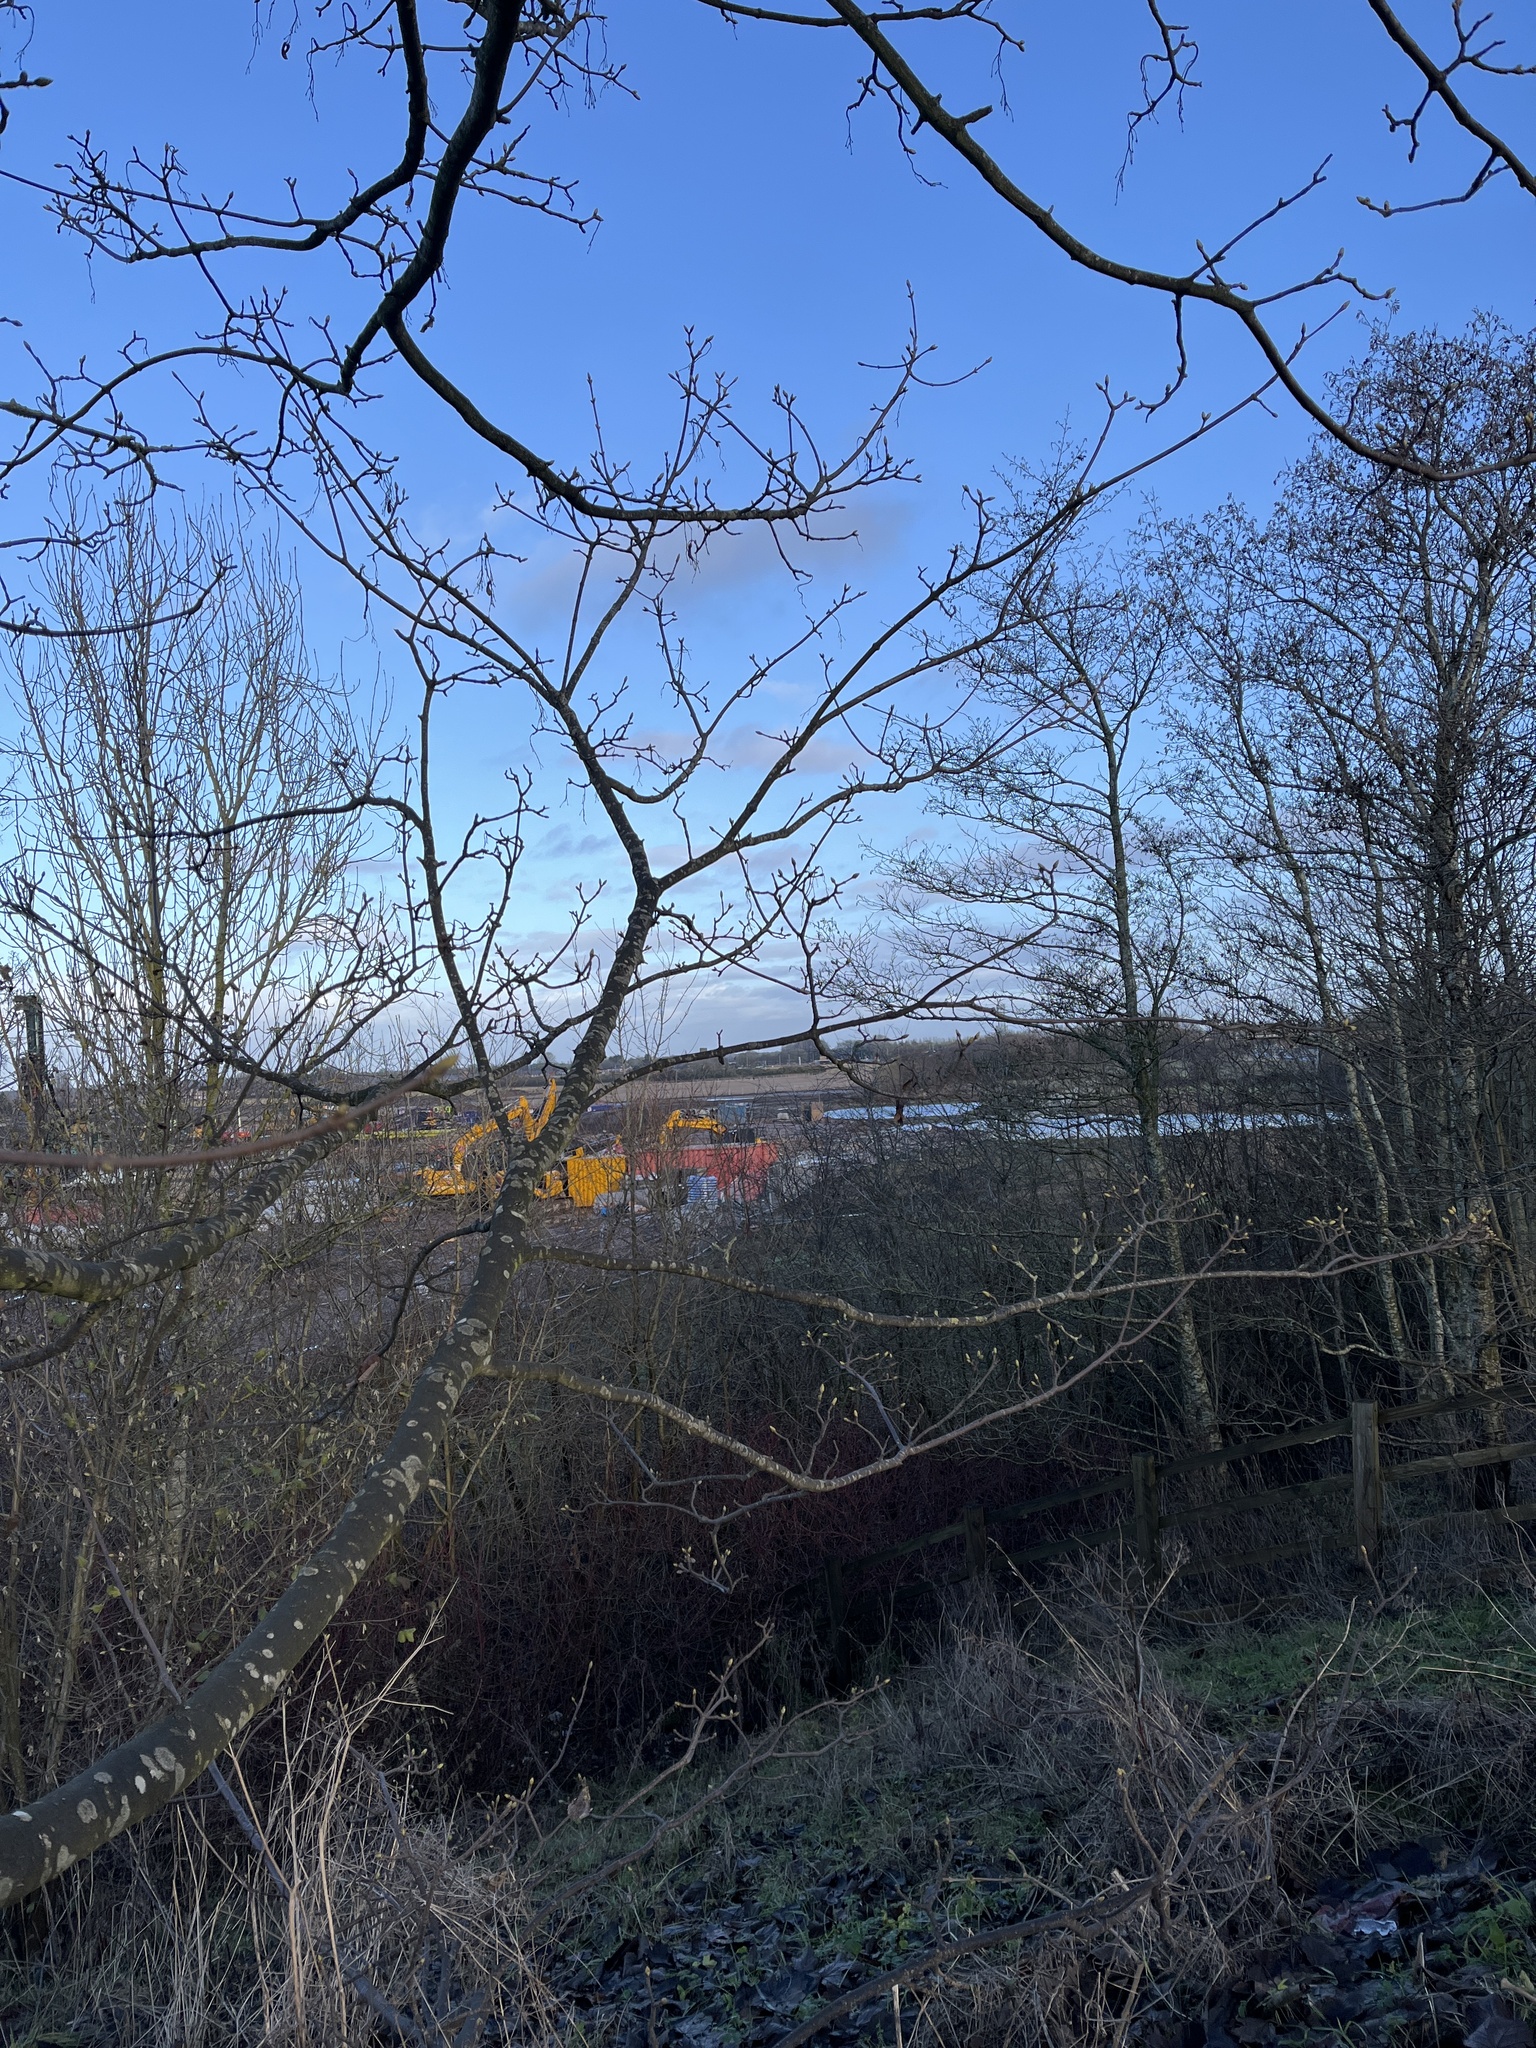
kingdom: Plantae
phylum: Tracheophyta
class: Magnoliopsida
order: Sapindales
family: Sapindaceae
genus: Acer
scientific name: Acer pseudoplatanus
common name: Sycamore
